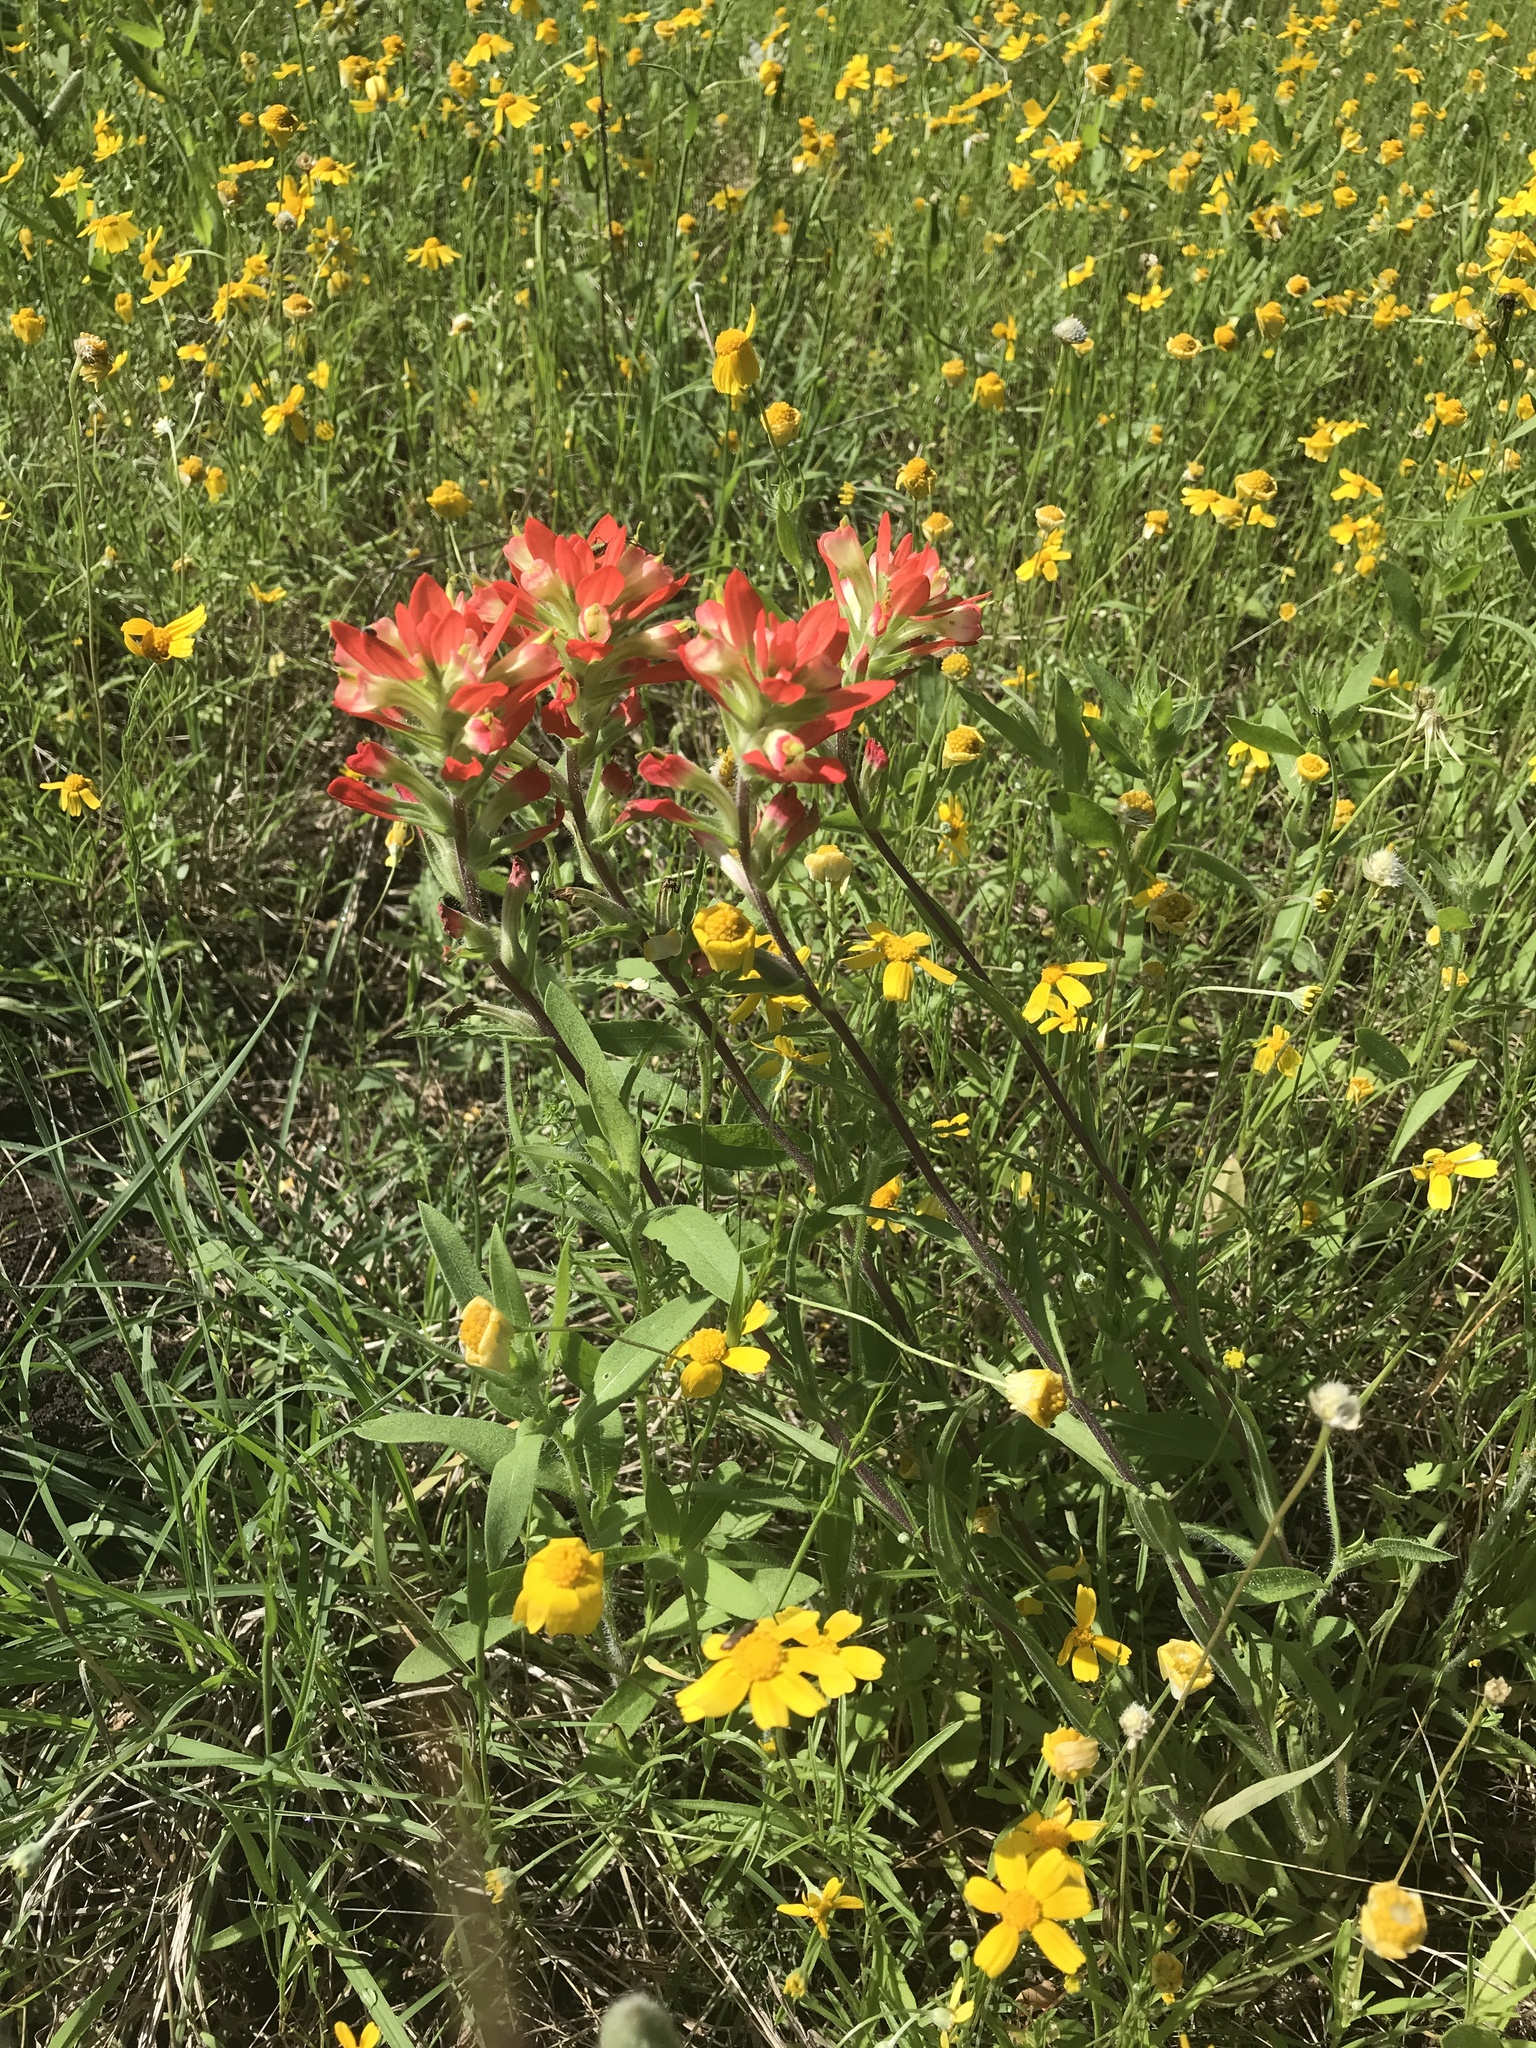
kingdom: Plantae
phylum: Tracheophyta
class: Magnoliopsida
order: Lamiales
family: Orobanchaceae
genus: Castilleja
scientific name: Castilleja indivisa
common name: Texas paintbrush
